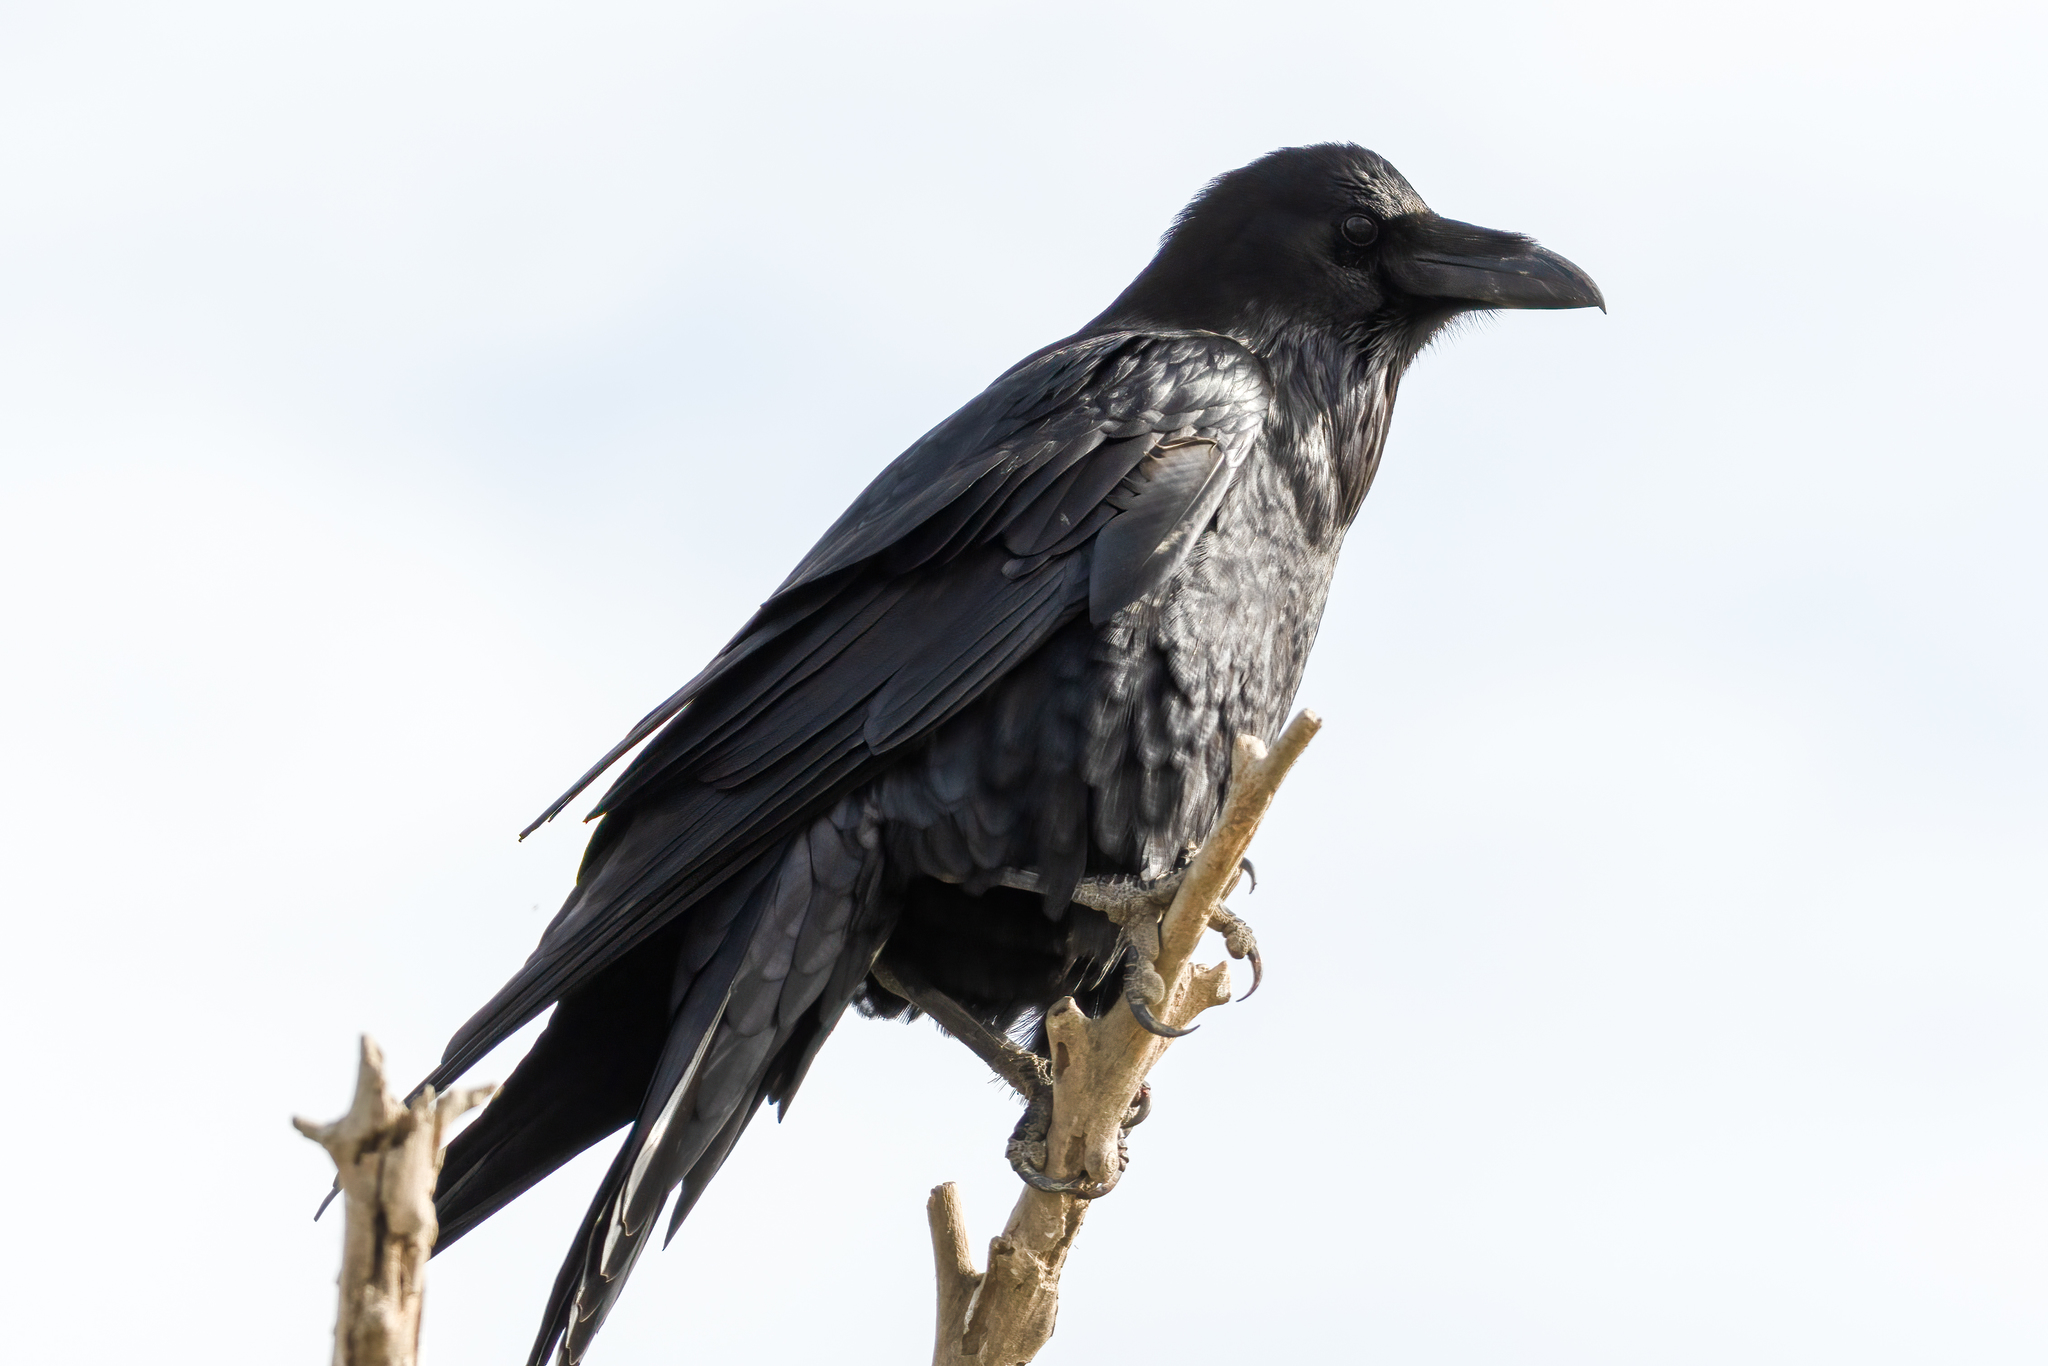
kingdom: Animalia
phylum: Chordata
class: Aves
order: Passeriformes
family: Corvidae
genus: Corvus
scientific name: Corvus corax
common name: Common raven
